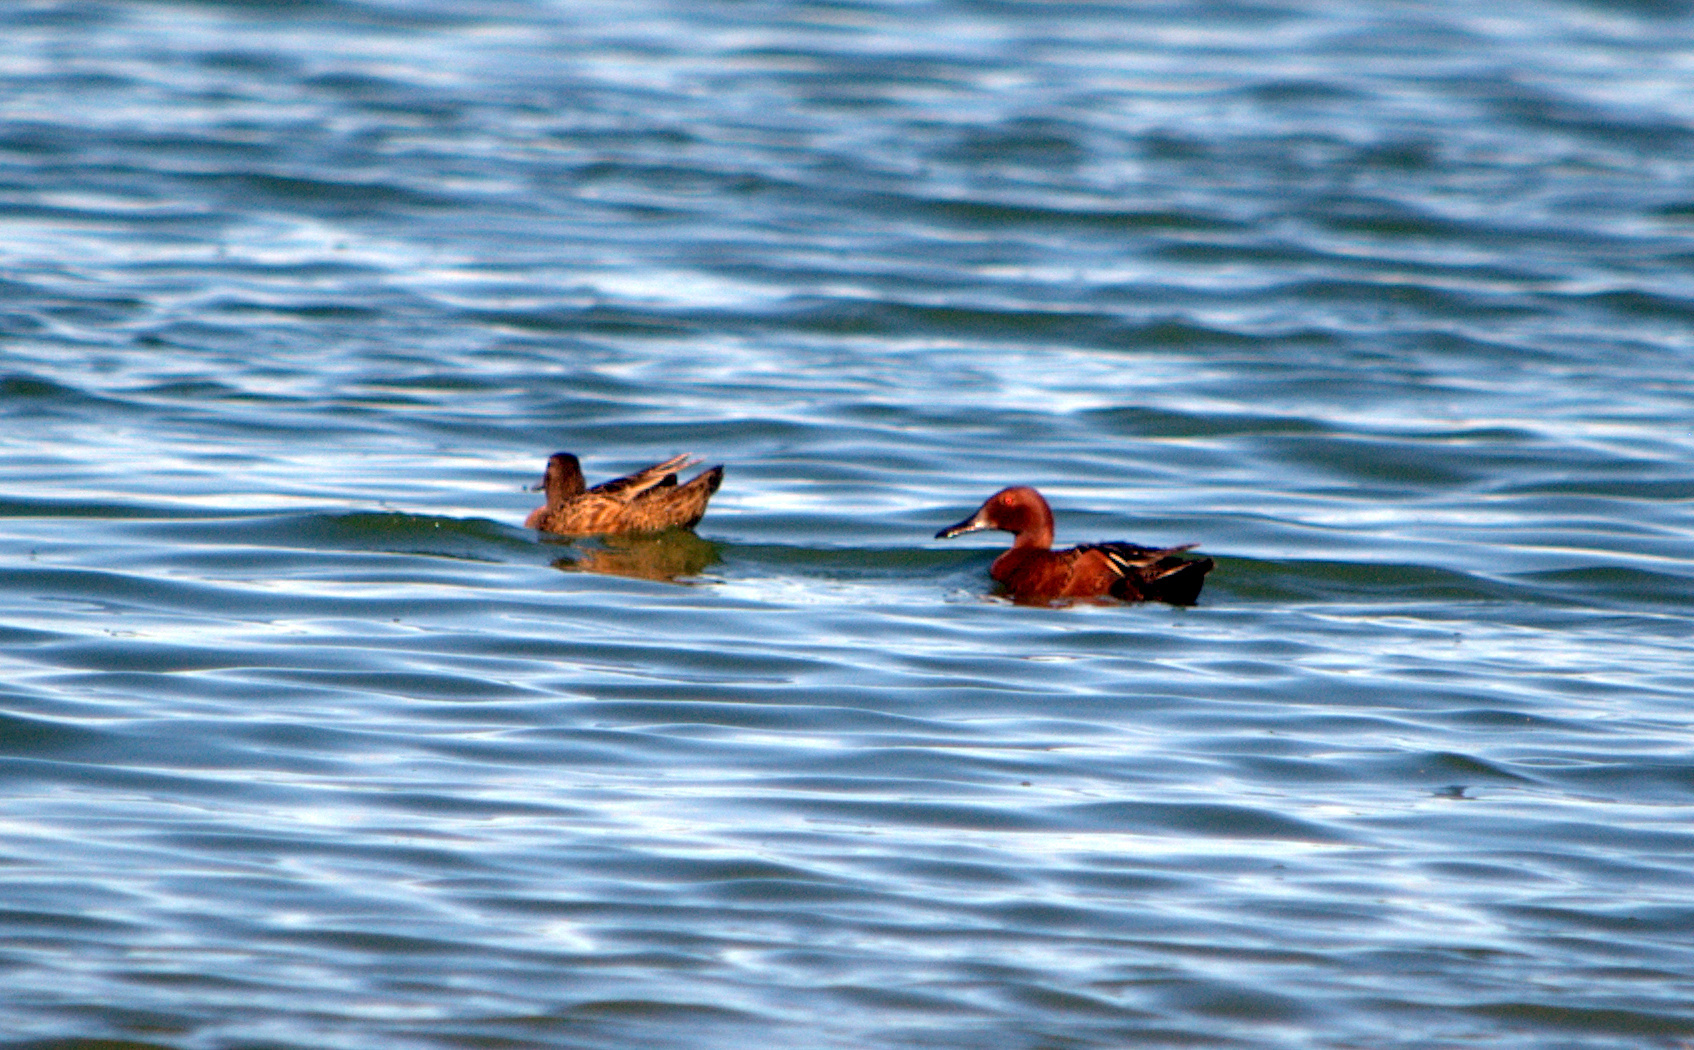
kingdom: Animalia
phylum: Chordata
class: Aves
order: Anseriformes
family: Anatidae
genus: Spatula
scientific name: Spatula cyanoptera
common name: Cinnamon teal
